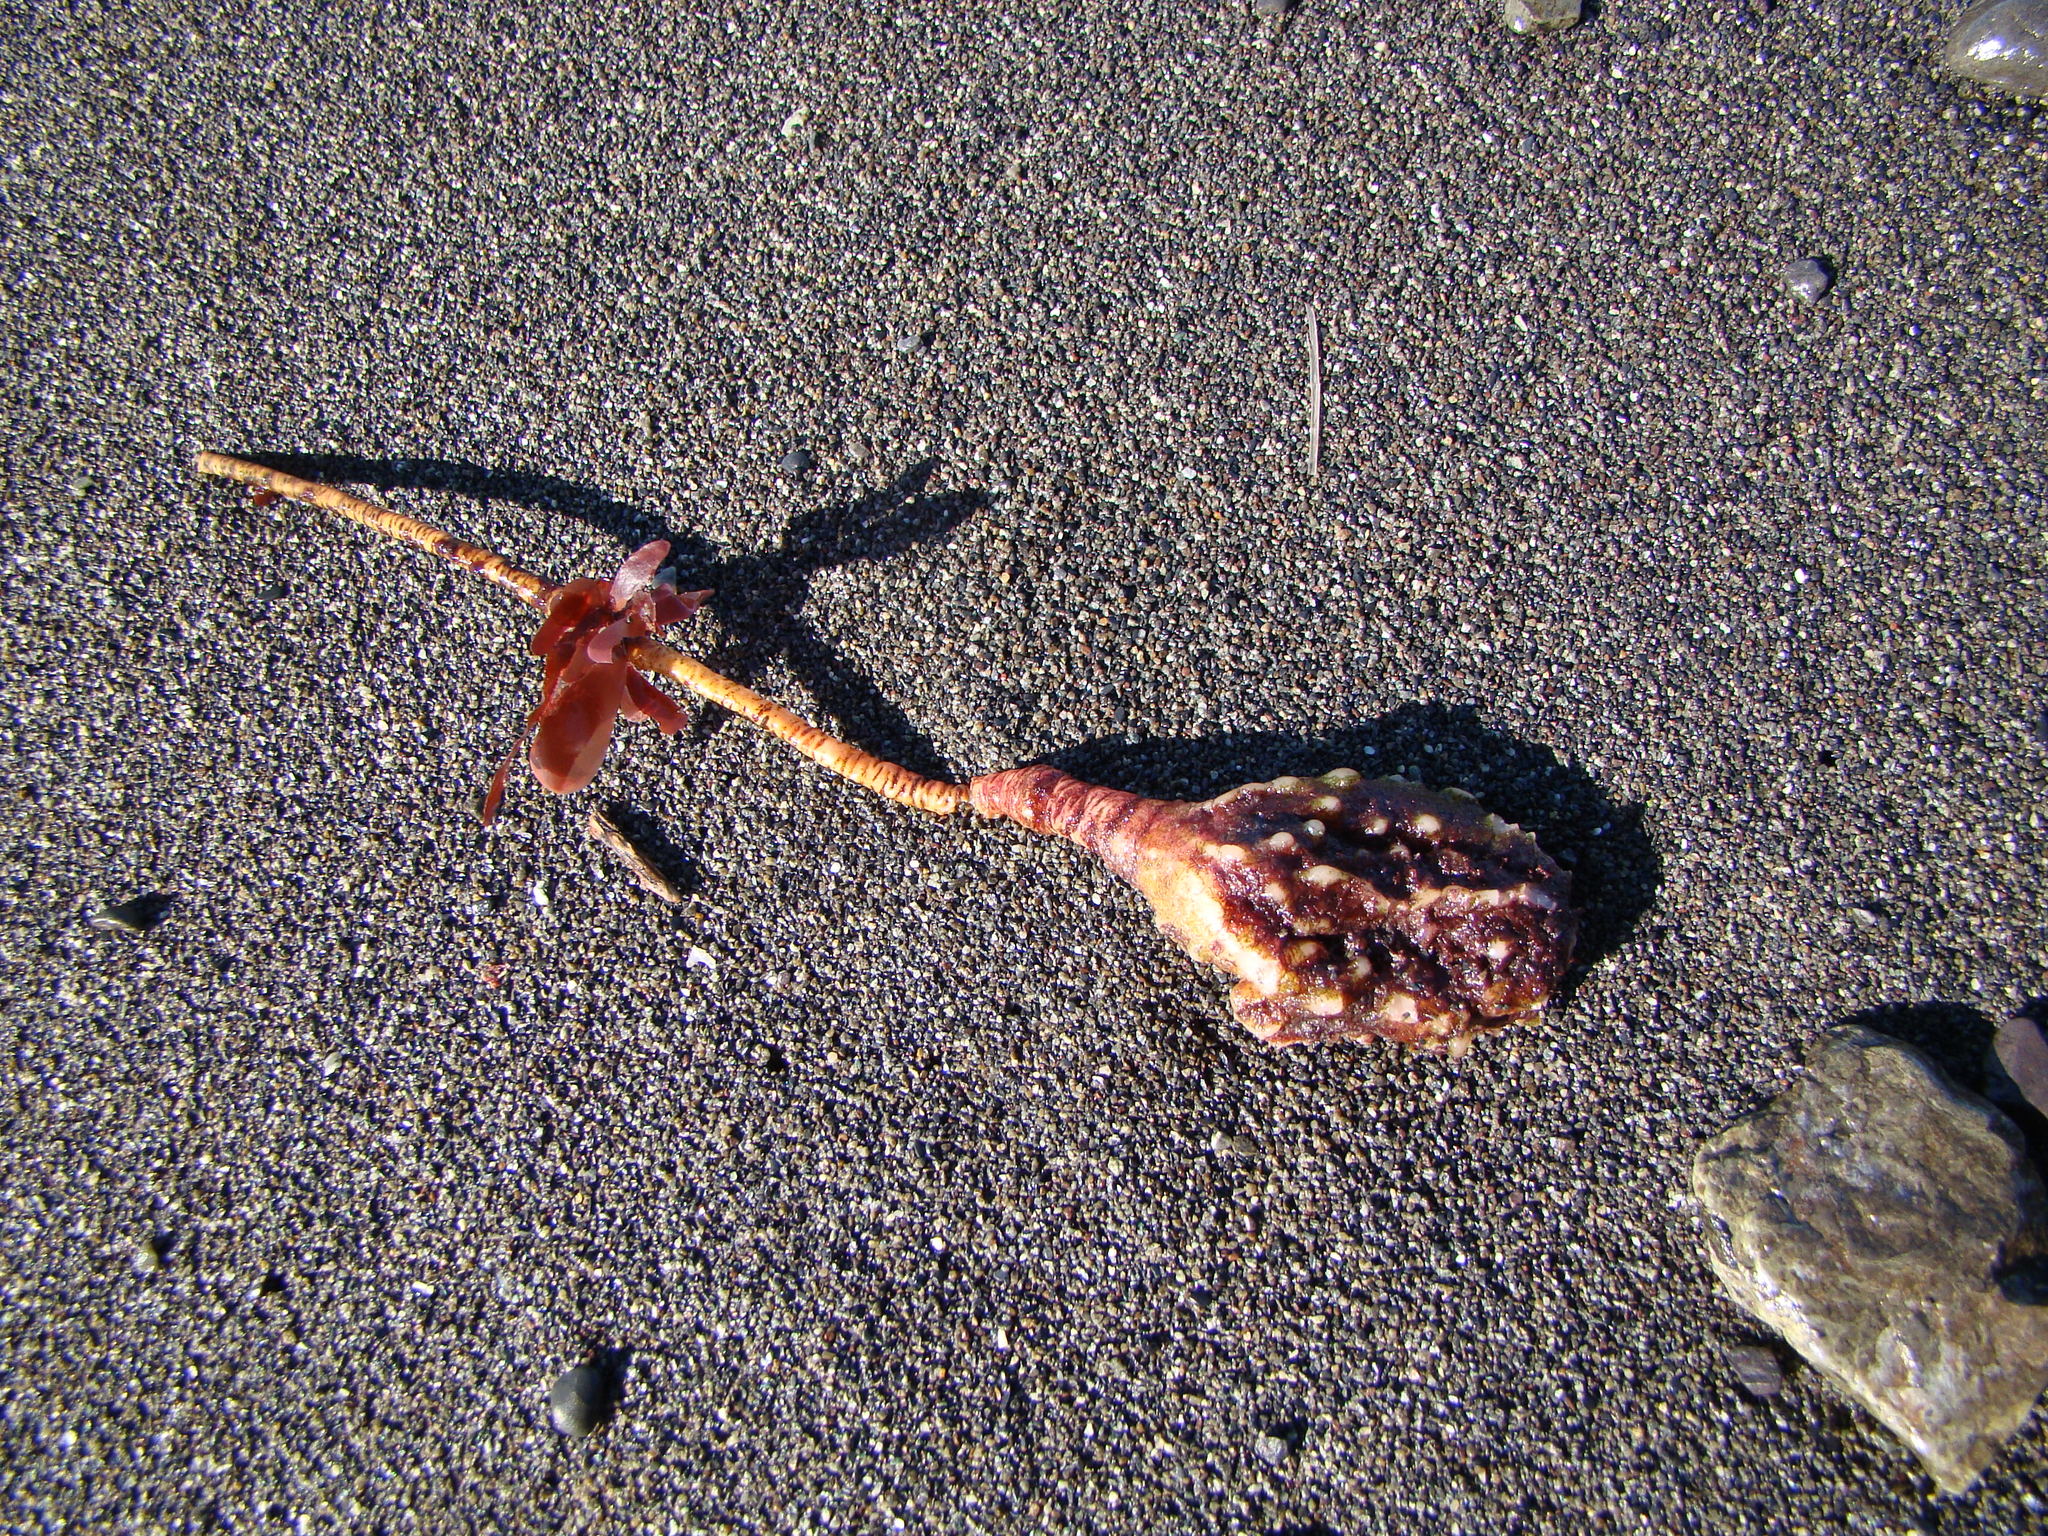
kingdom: Animalia
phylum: Chordata
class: Ascidiacea
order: Stolidobranchia
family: Pyuridae
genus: Pyura
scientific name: Pyura pachydermatina
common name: Sea tulip
